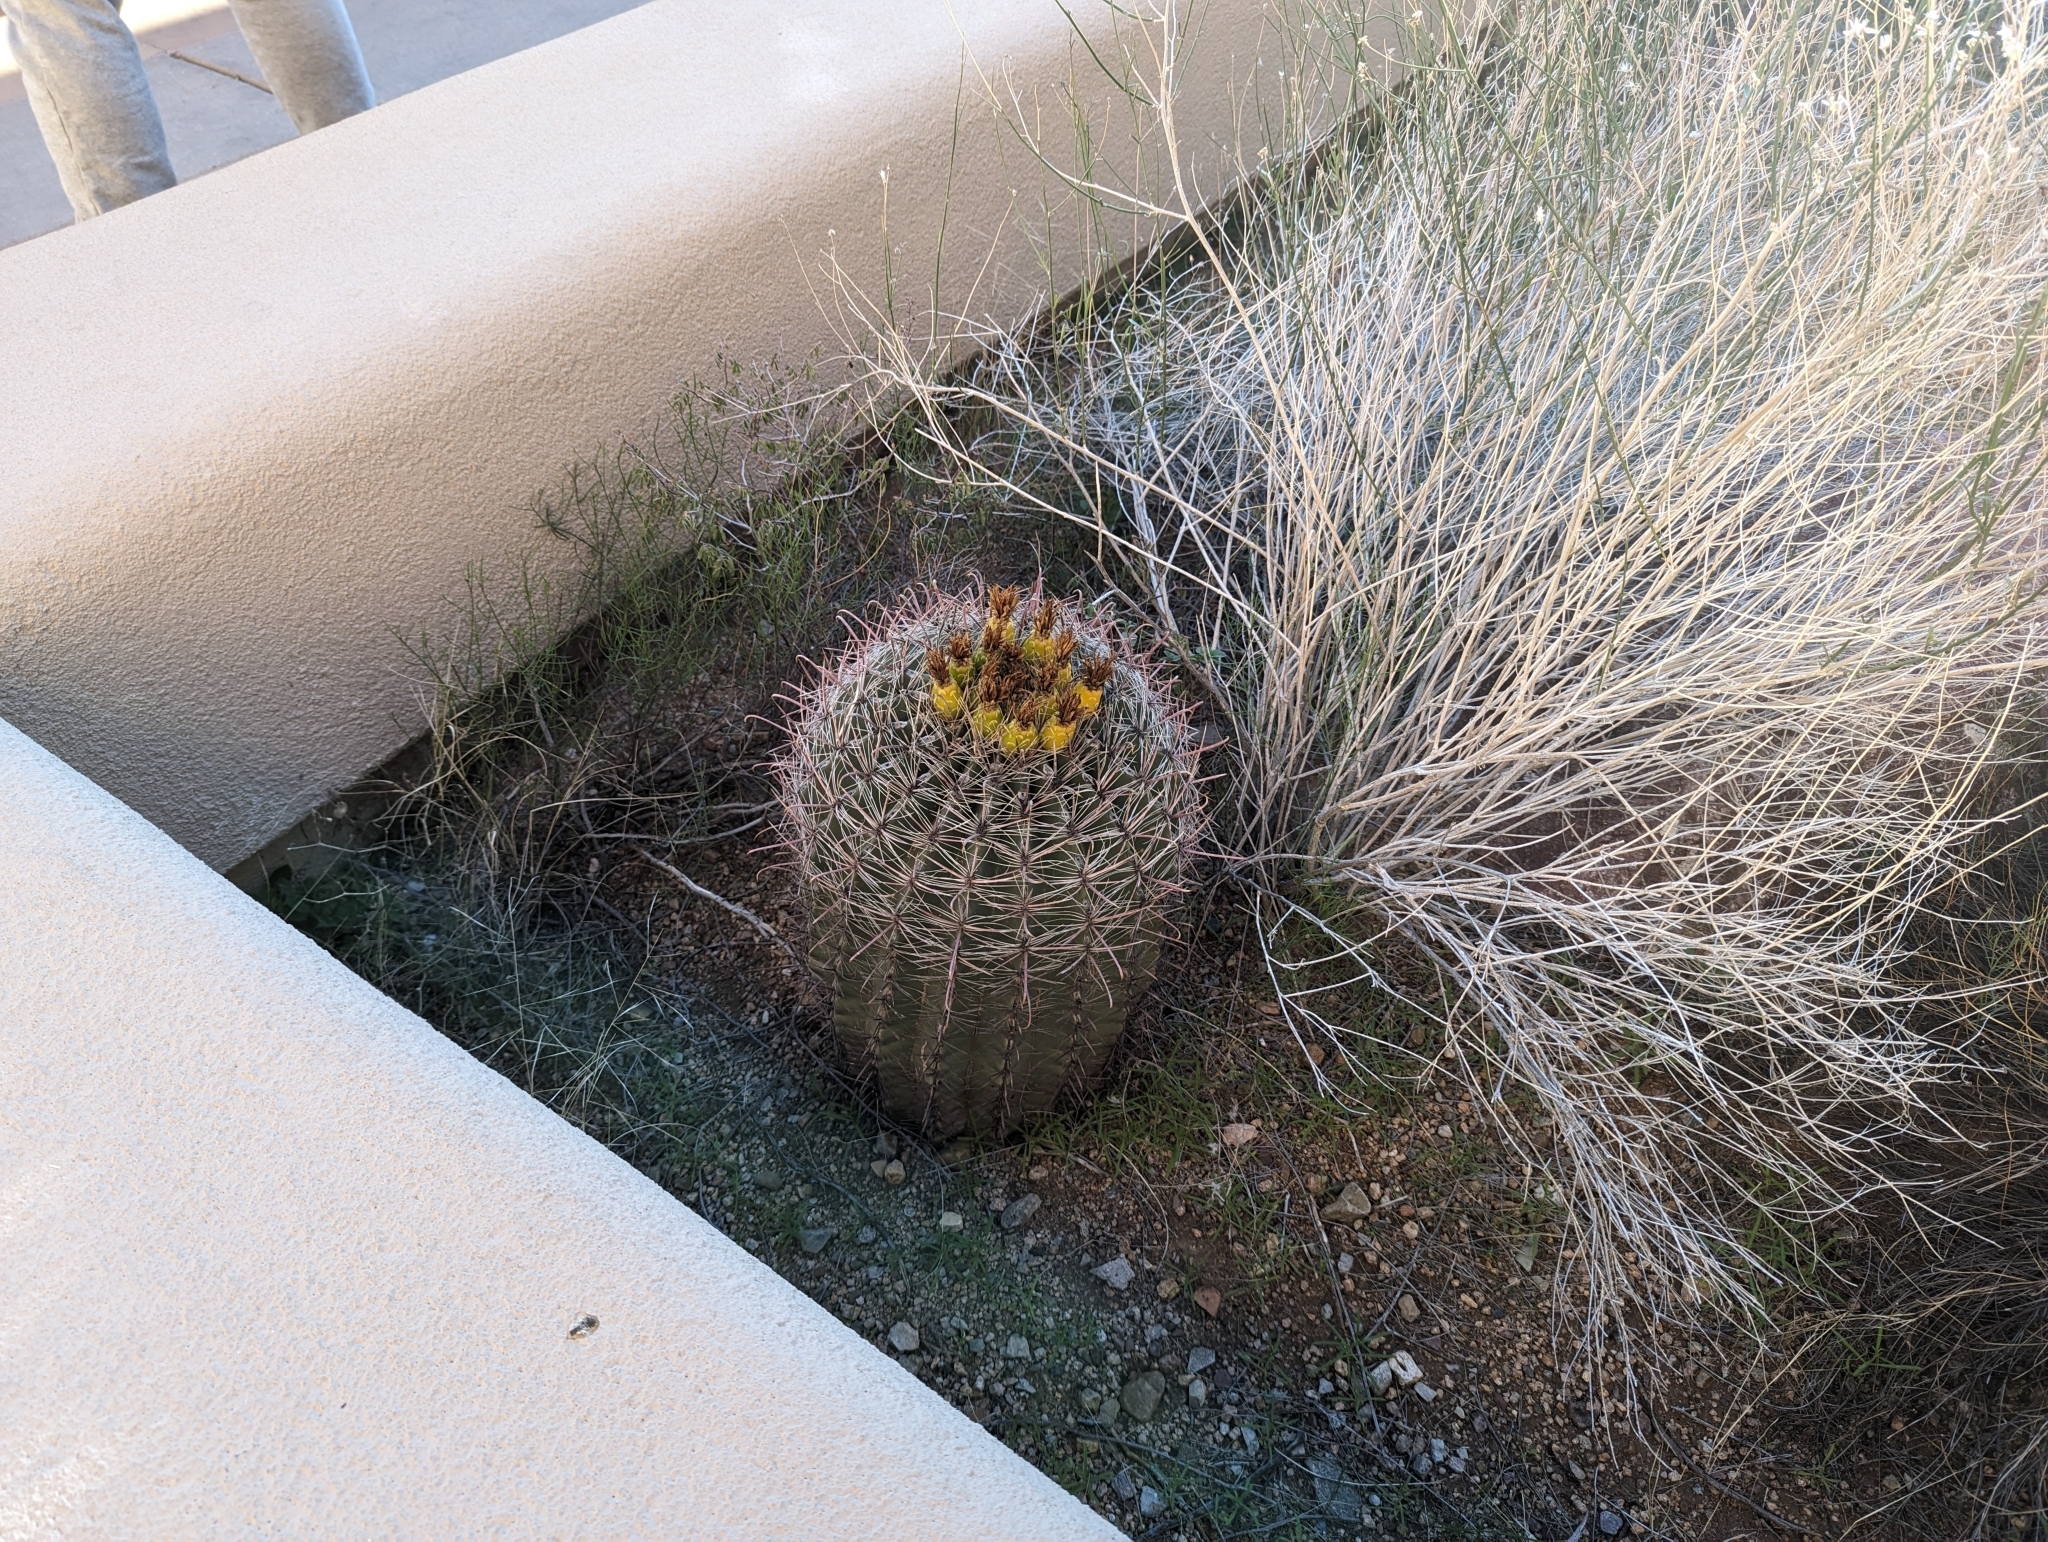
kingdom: Plantae
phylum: Tracheophyta
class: Magnoliopsida
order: Caryophyllales
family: Cactaceae
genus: Ferocactus
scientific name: Ferocactus wislizeni
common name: Candy barrel cactus
